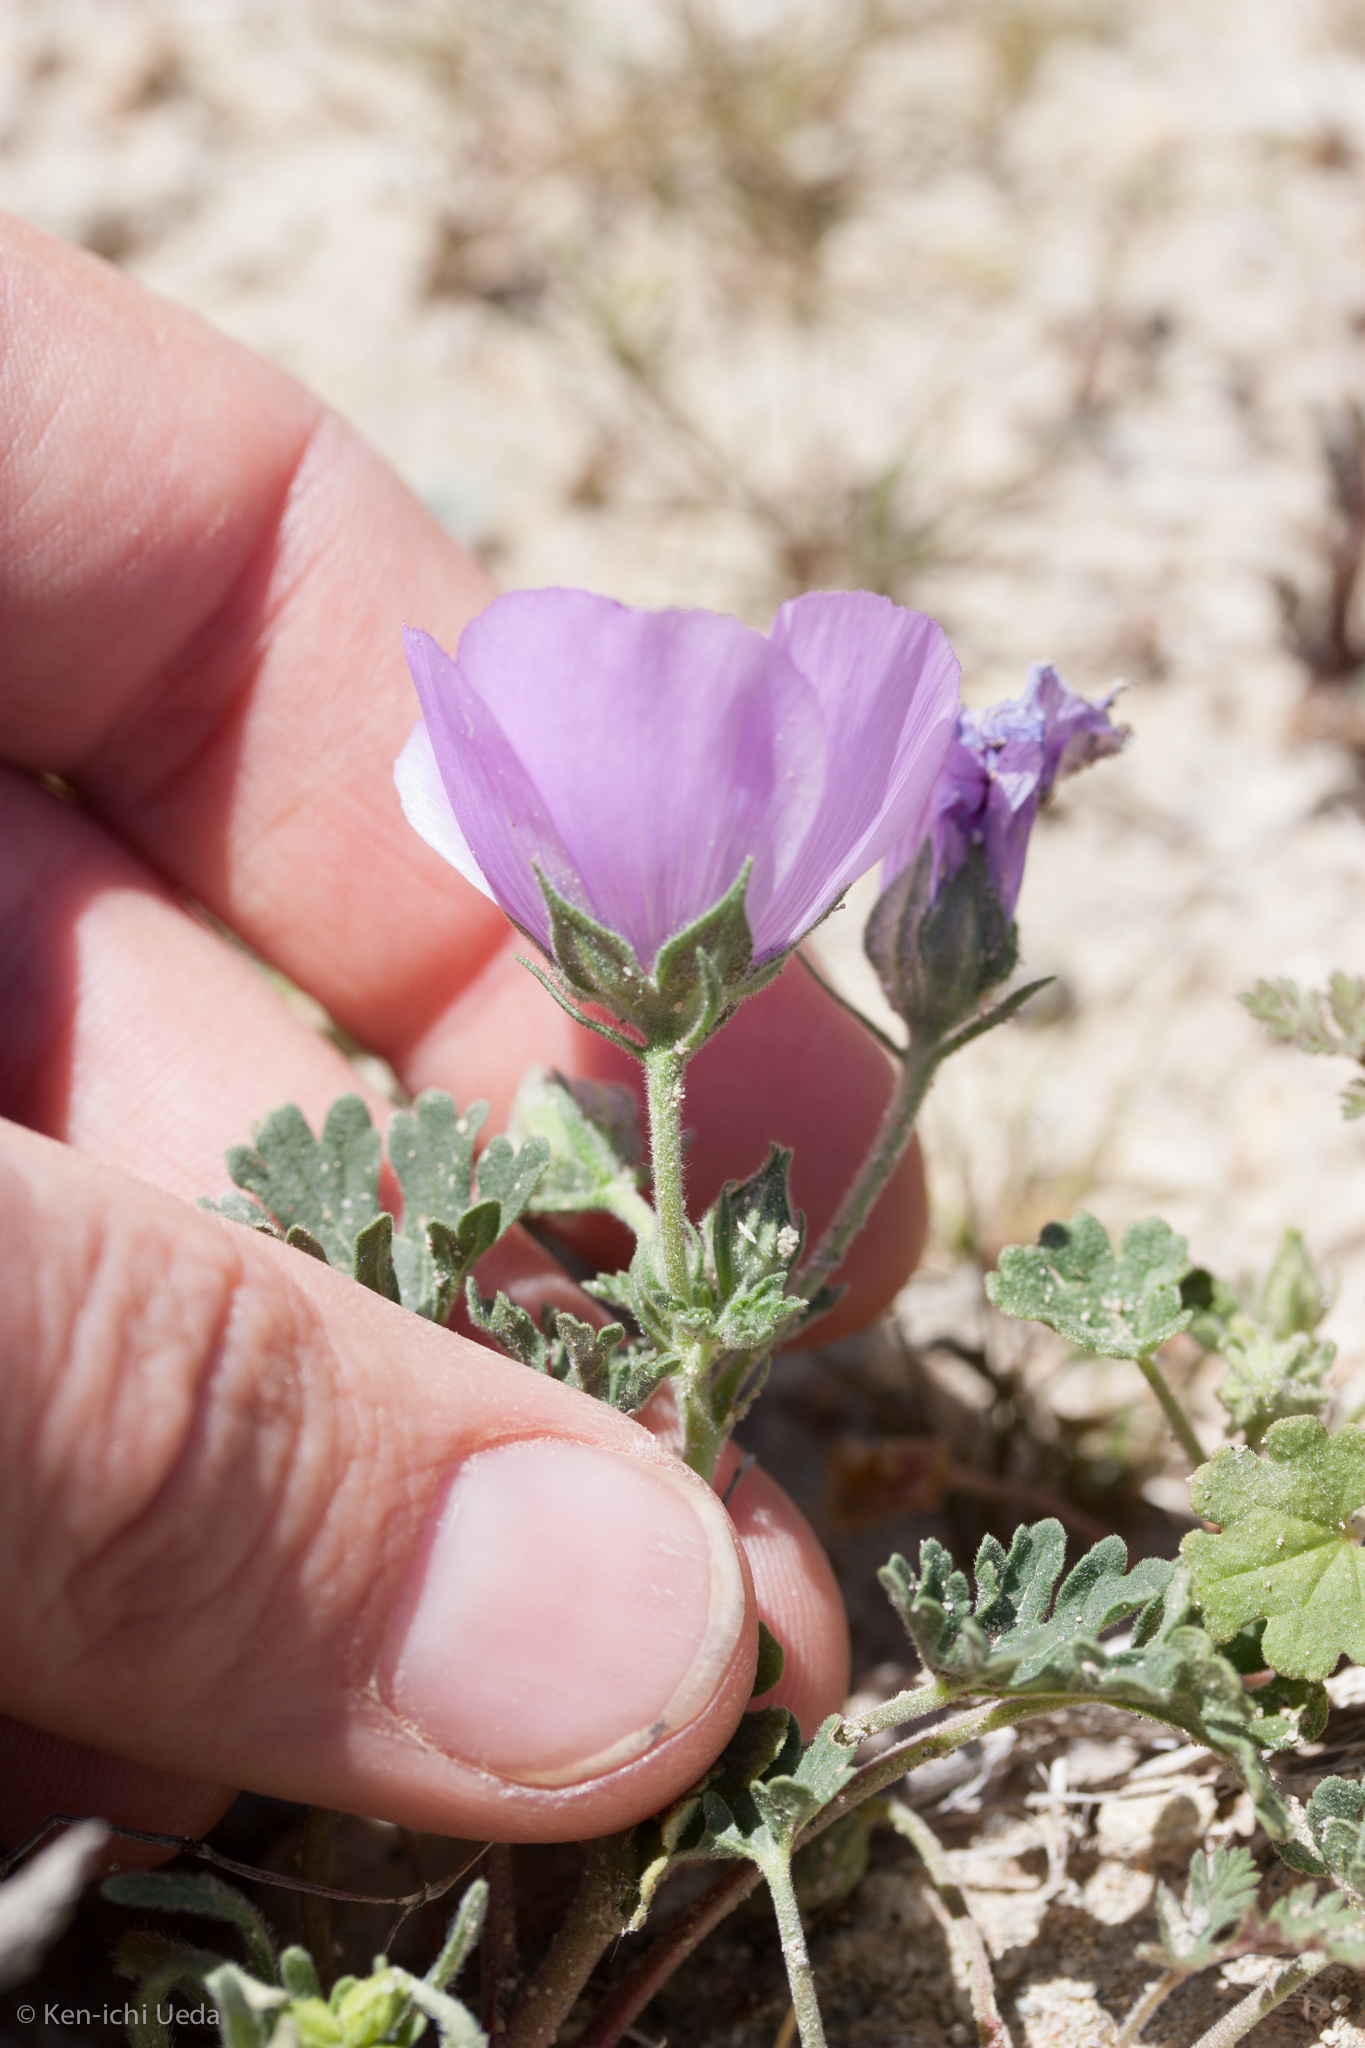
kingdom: Plantae
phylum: Tracheophyta
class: Magnoliopsida
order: Malvales
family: Malvaceae
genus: Eremalche
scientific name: Eremalche parryi
